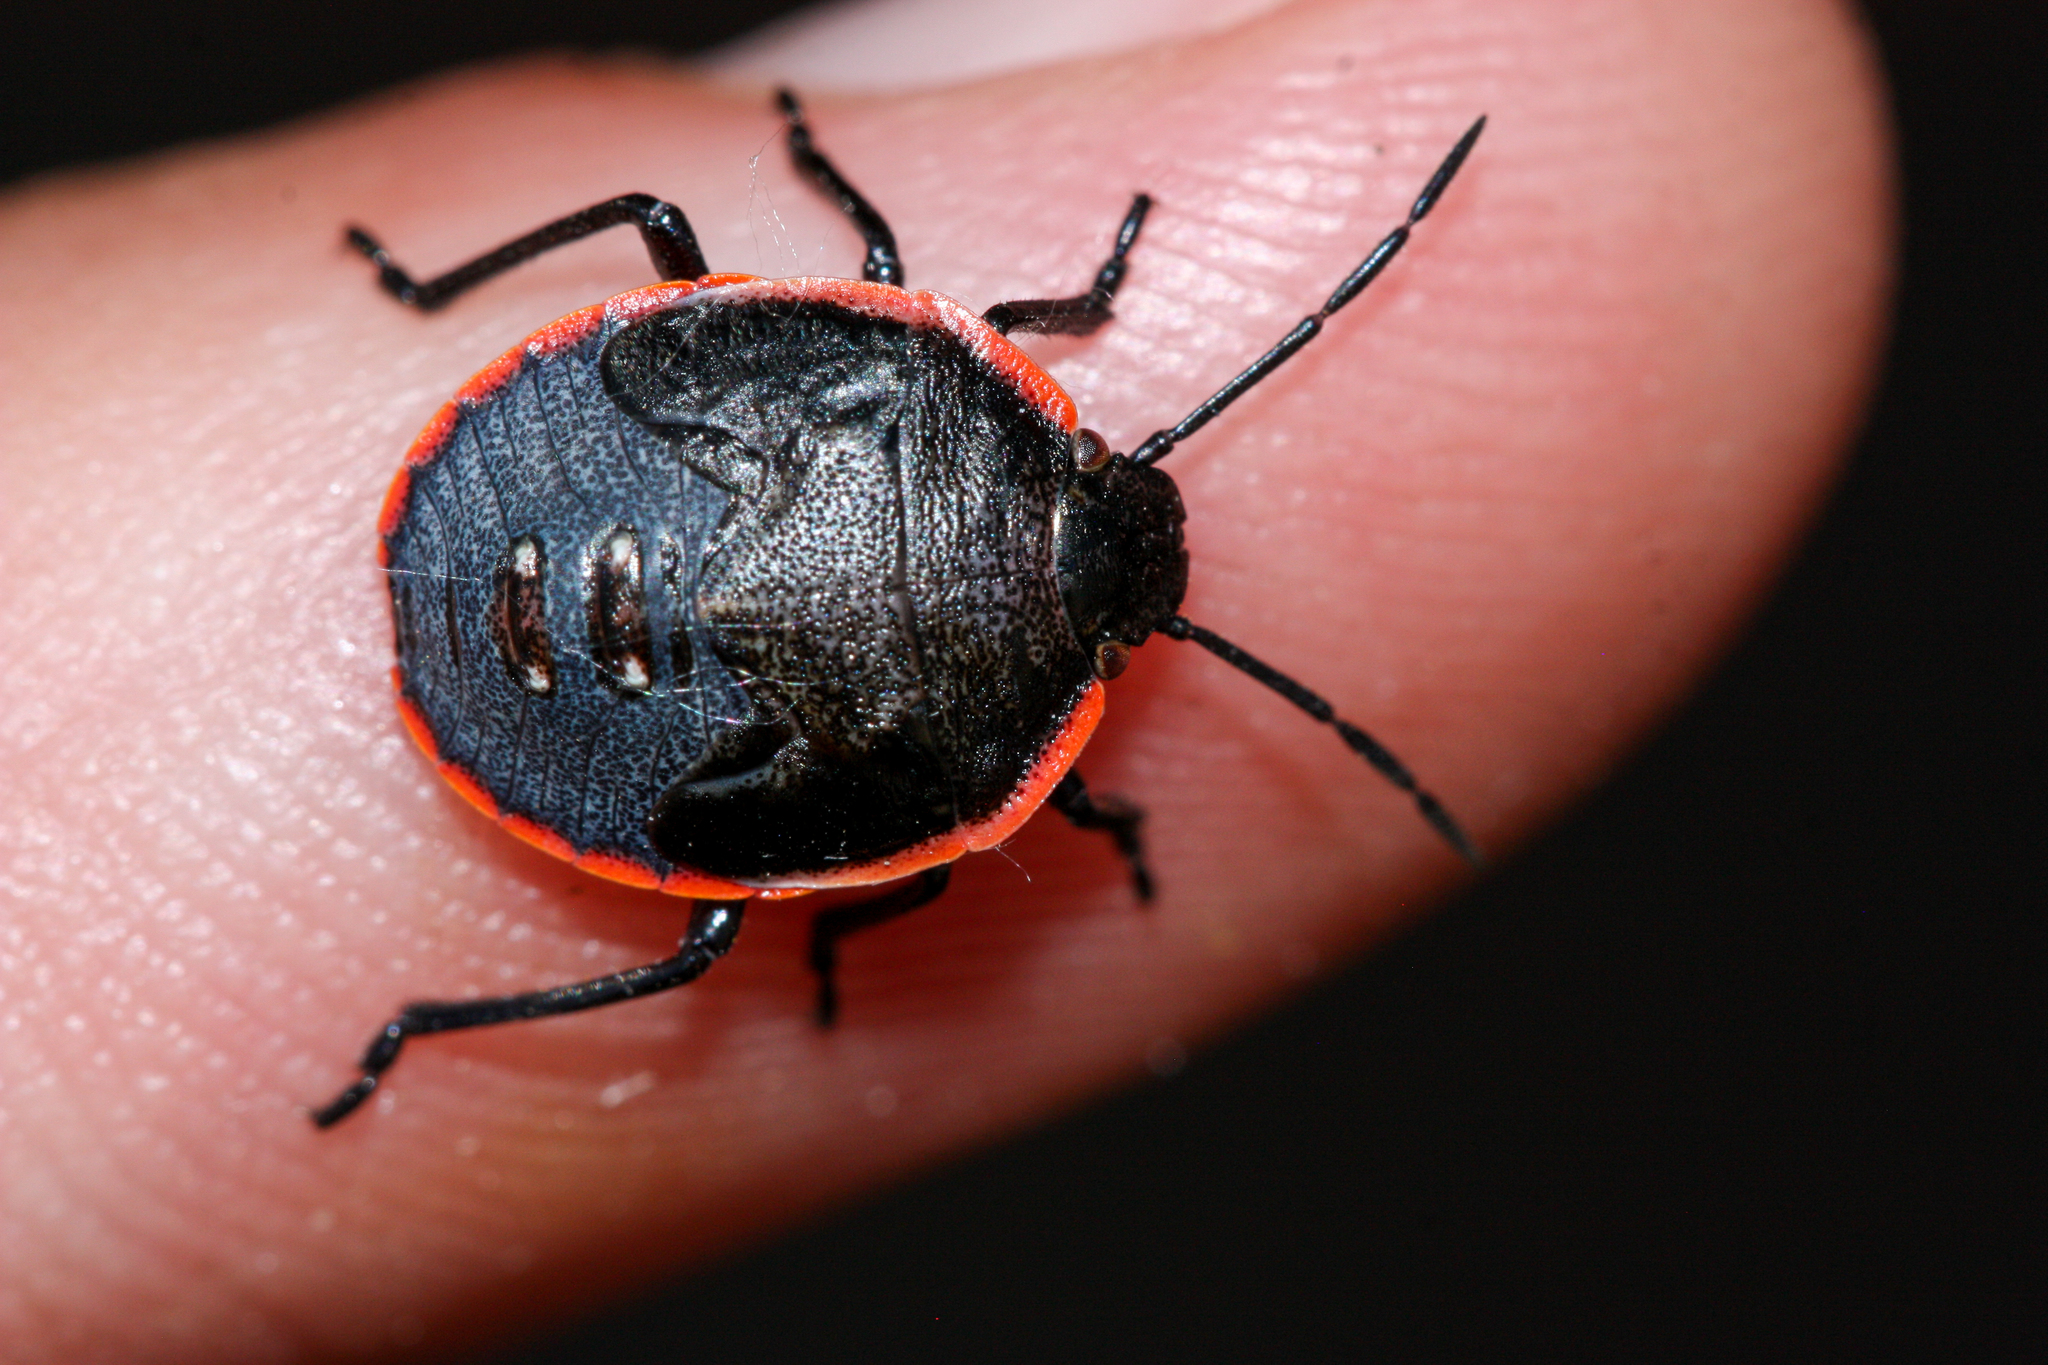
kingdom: Animalia
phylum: Arthropoda
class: Insecta
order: Hemiptera
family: Pentatomidae
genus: Chlorochroa
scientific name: Chlorochroa ligata
